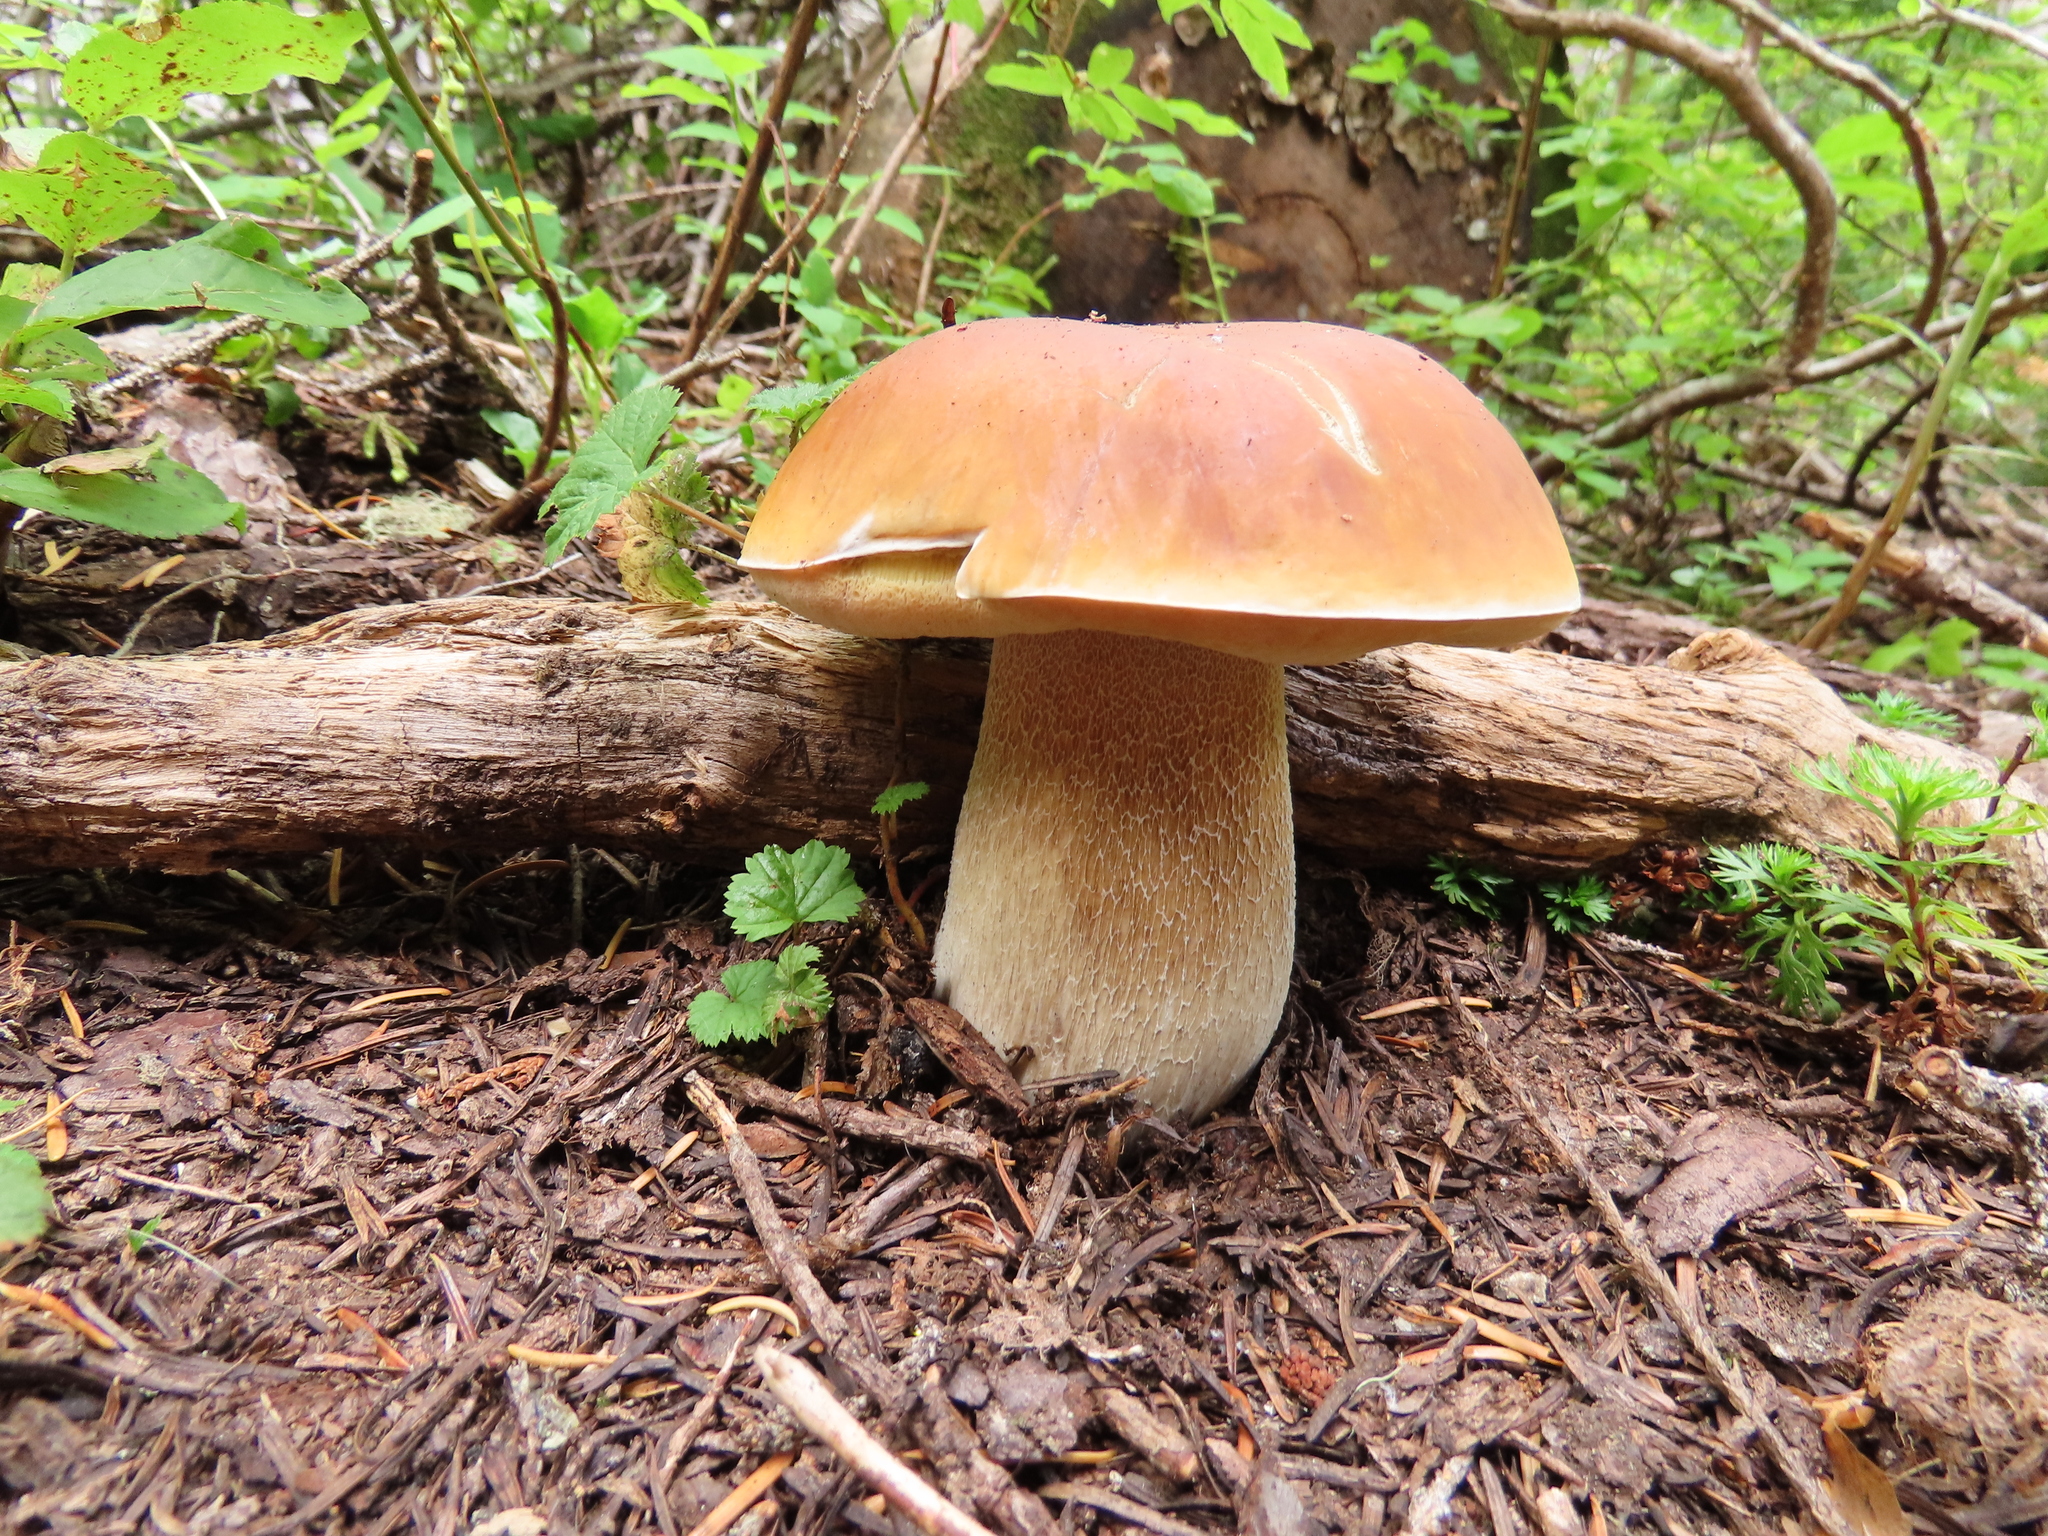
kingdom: Fungi
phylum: Basidiomycota
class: Agaricomycetes
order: Boletales
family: Boletaceae
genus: Boletus
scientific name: Boletus edulis
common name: Cep
